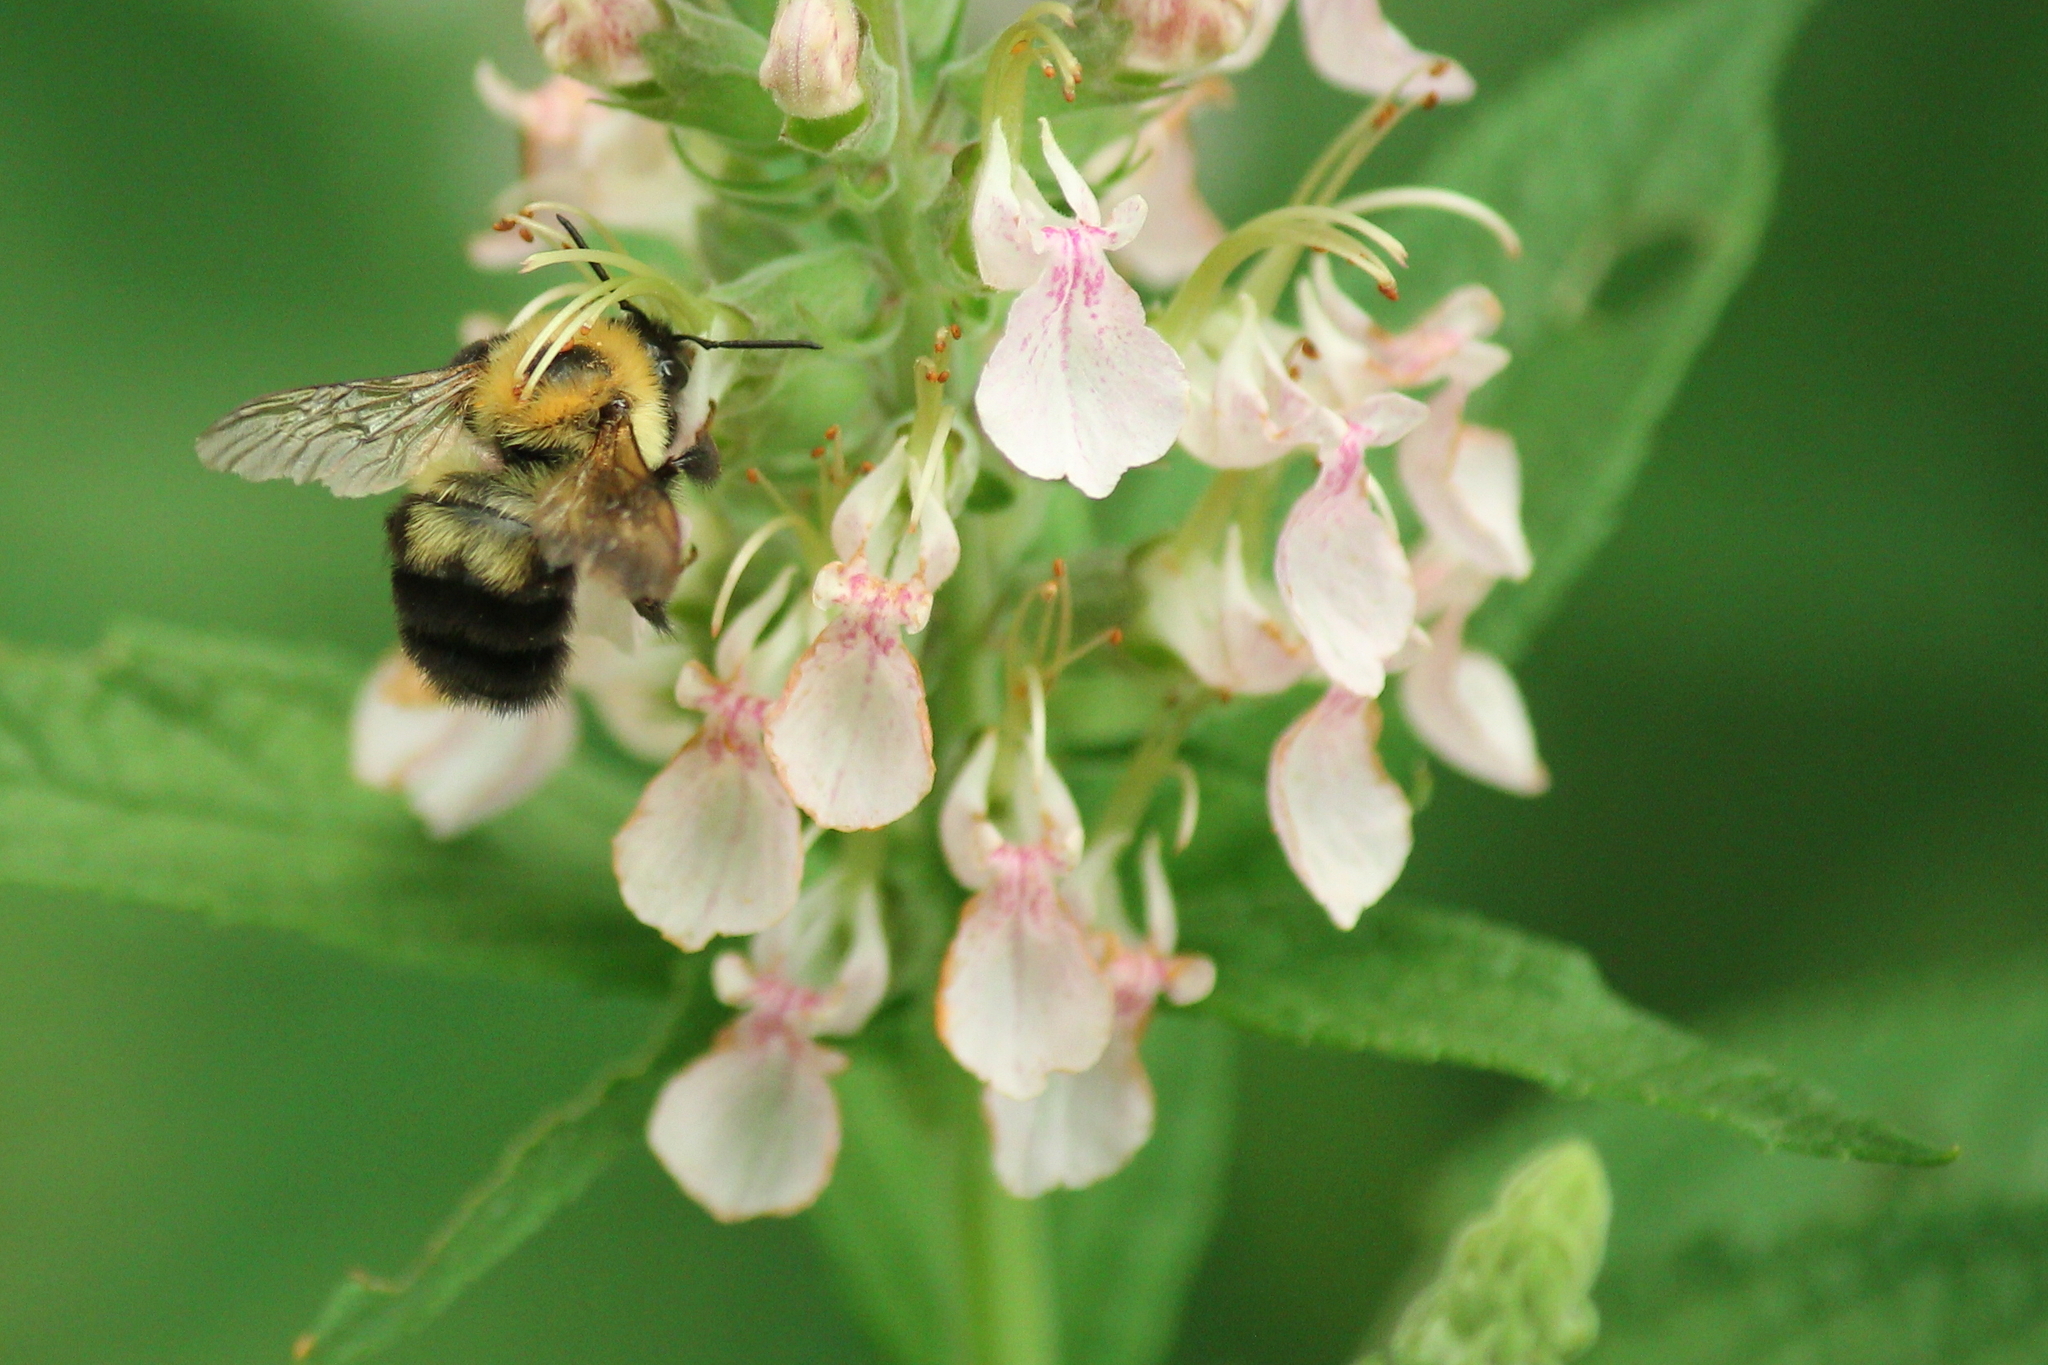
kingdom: Animalia
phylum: Arthropoda
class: Insecta
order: Hymenoptera
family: Apidae
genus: Bombus
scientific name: Bombus bimaculatus
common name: Two-spotted bumble bee
